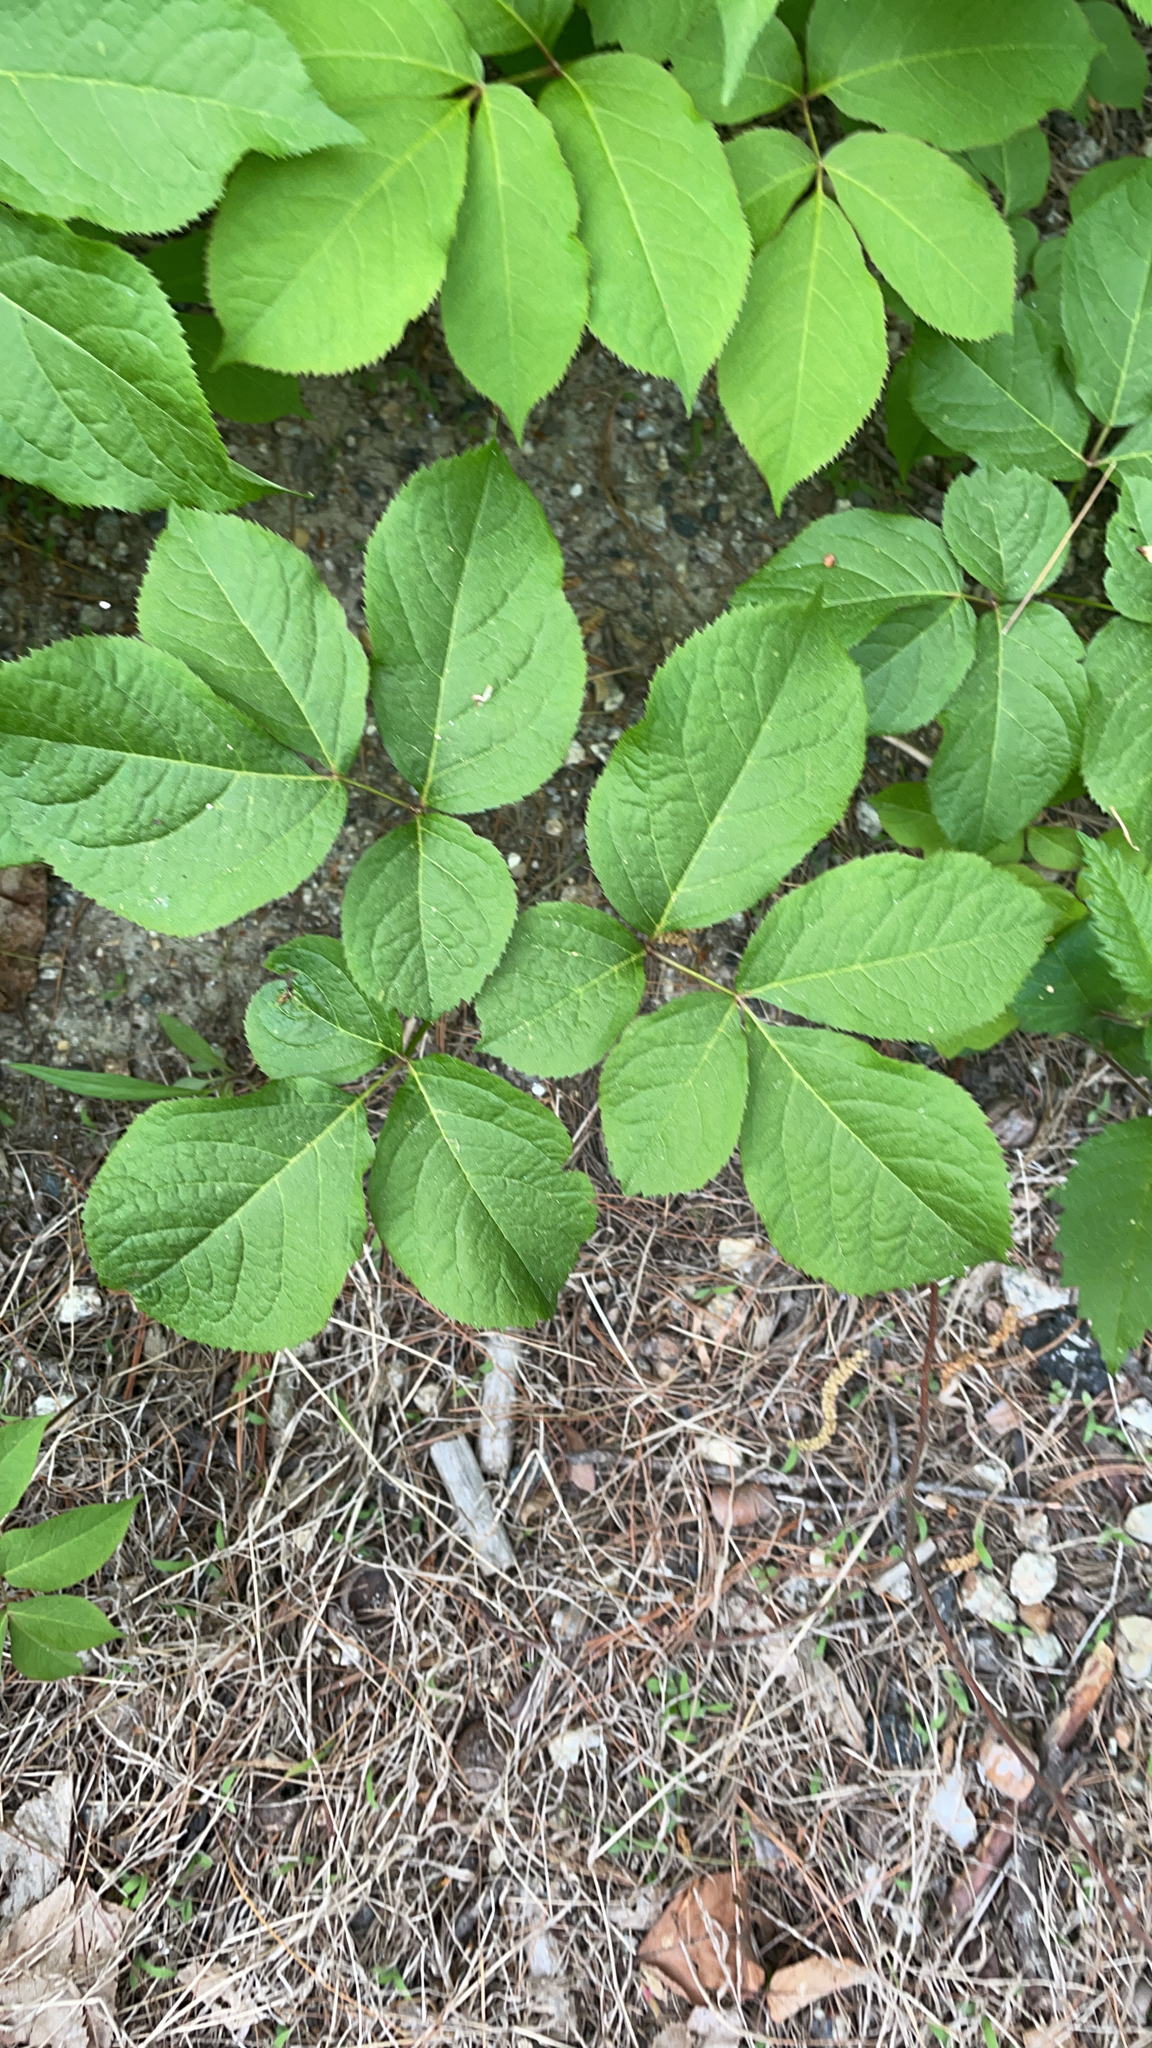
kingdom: Plantae
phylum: Tracheophyta
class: Magnoliopsida
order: Apiales
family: Araliaceae
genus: Aralia
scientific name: Aralia nudicaulis
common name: Wild sarsaparilla
